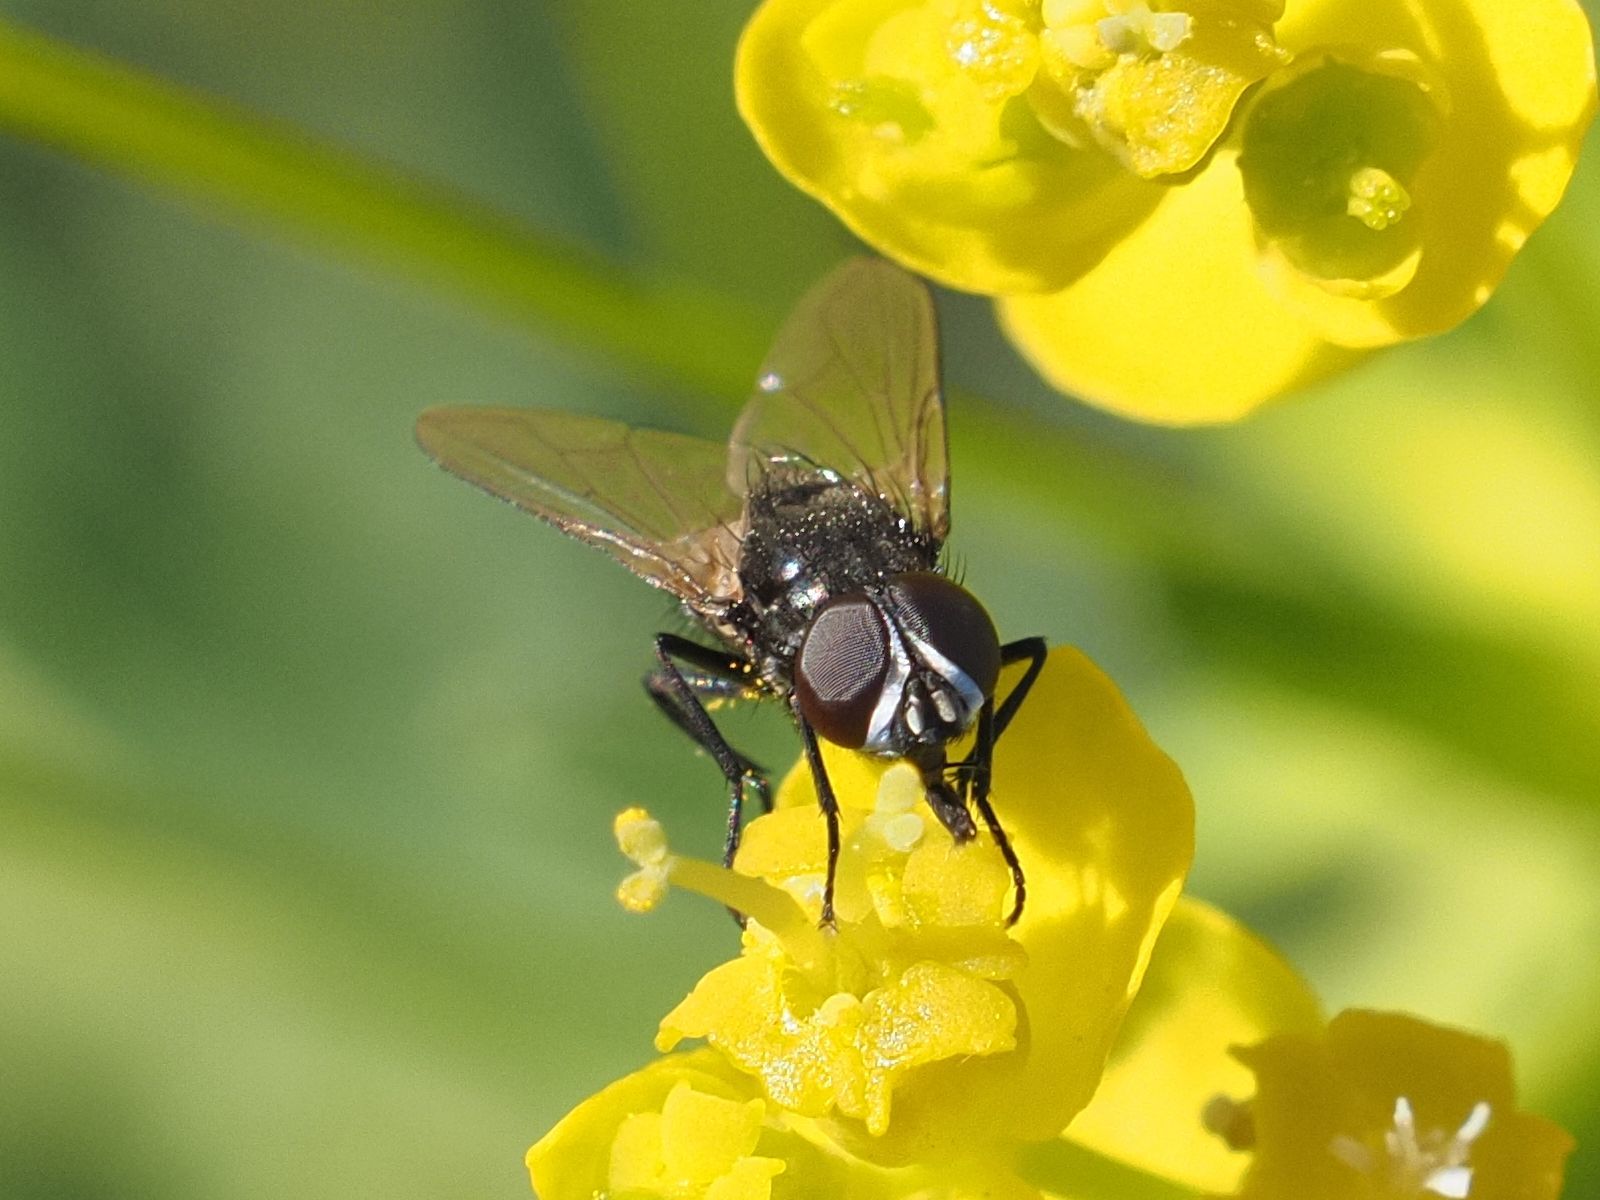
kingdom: Animalia
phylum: Arthropoda
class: Insecta
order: Diptera
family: Muscidae
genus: Musca
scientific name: Musca tempestiva
